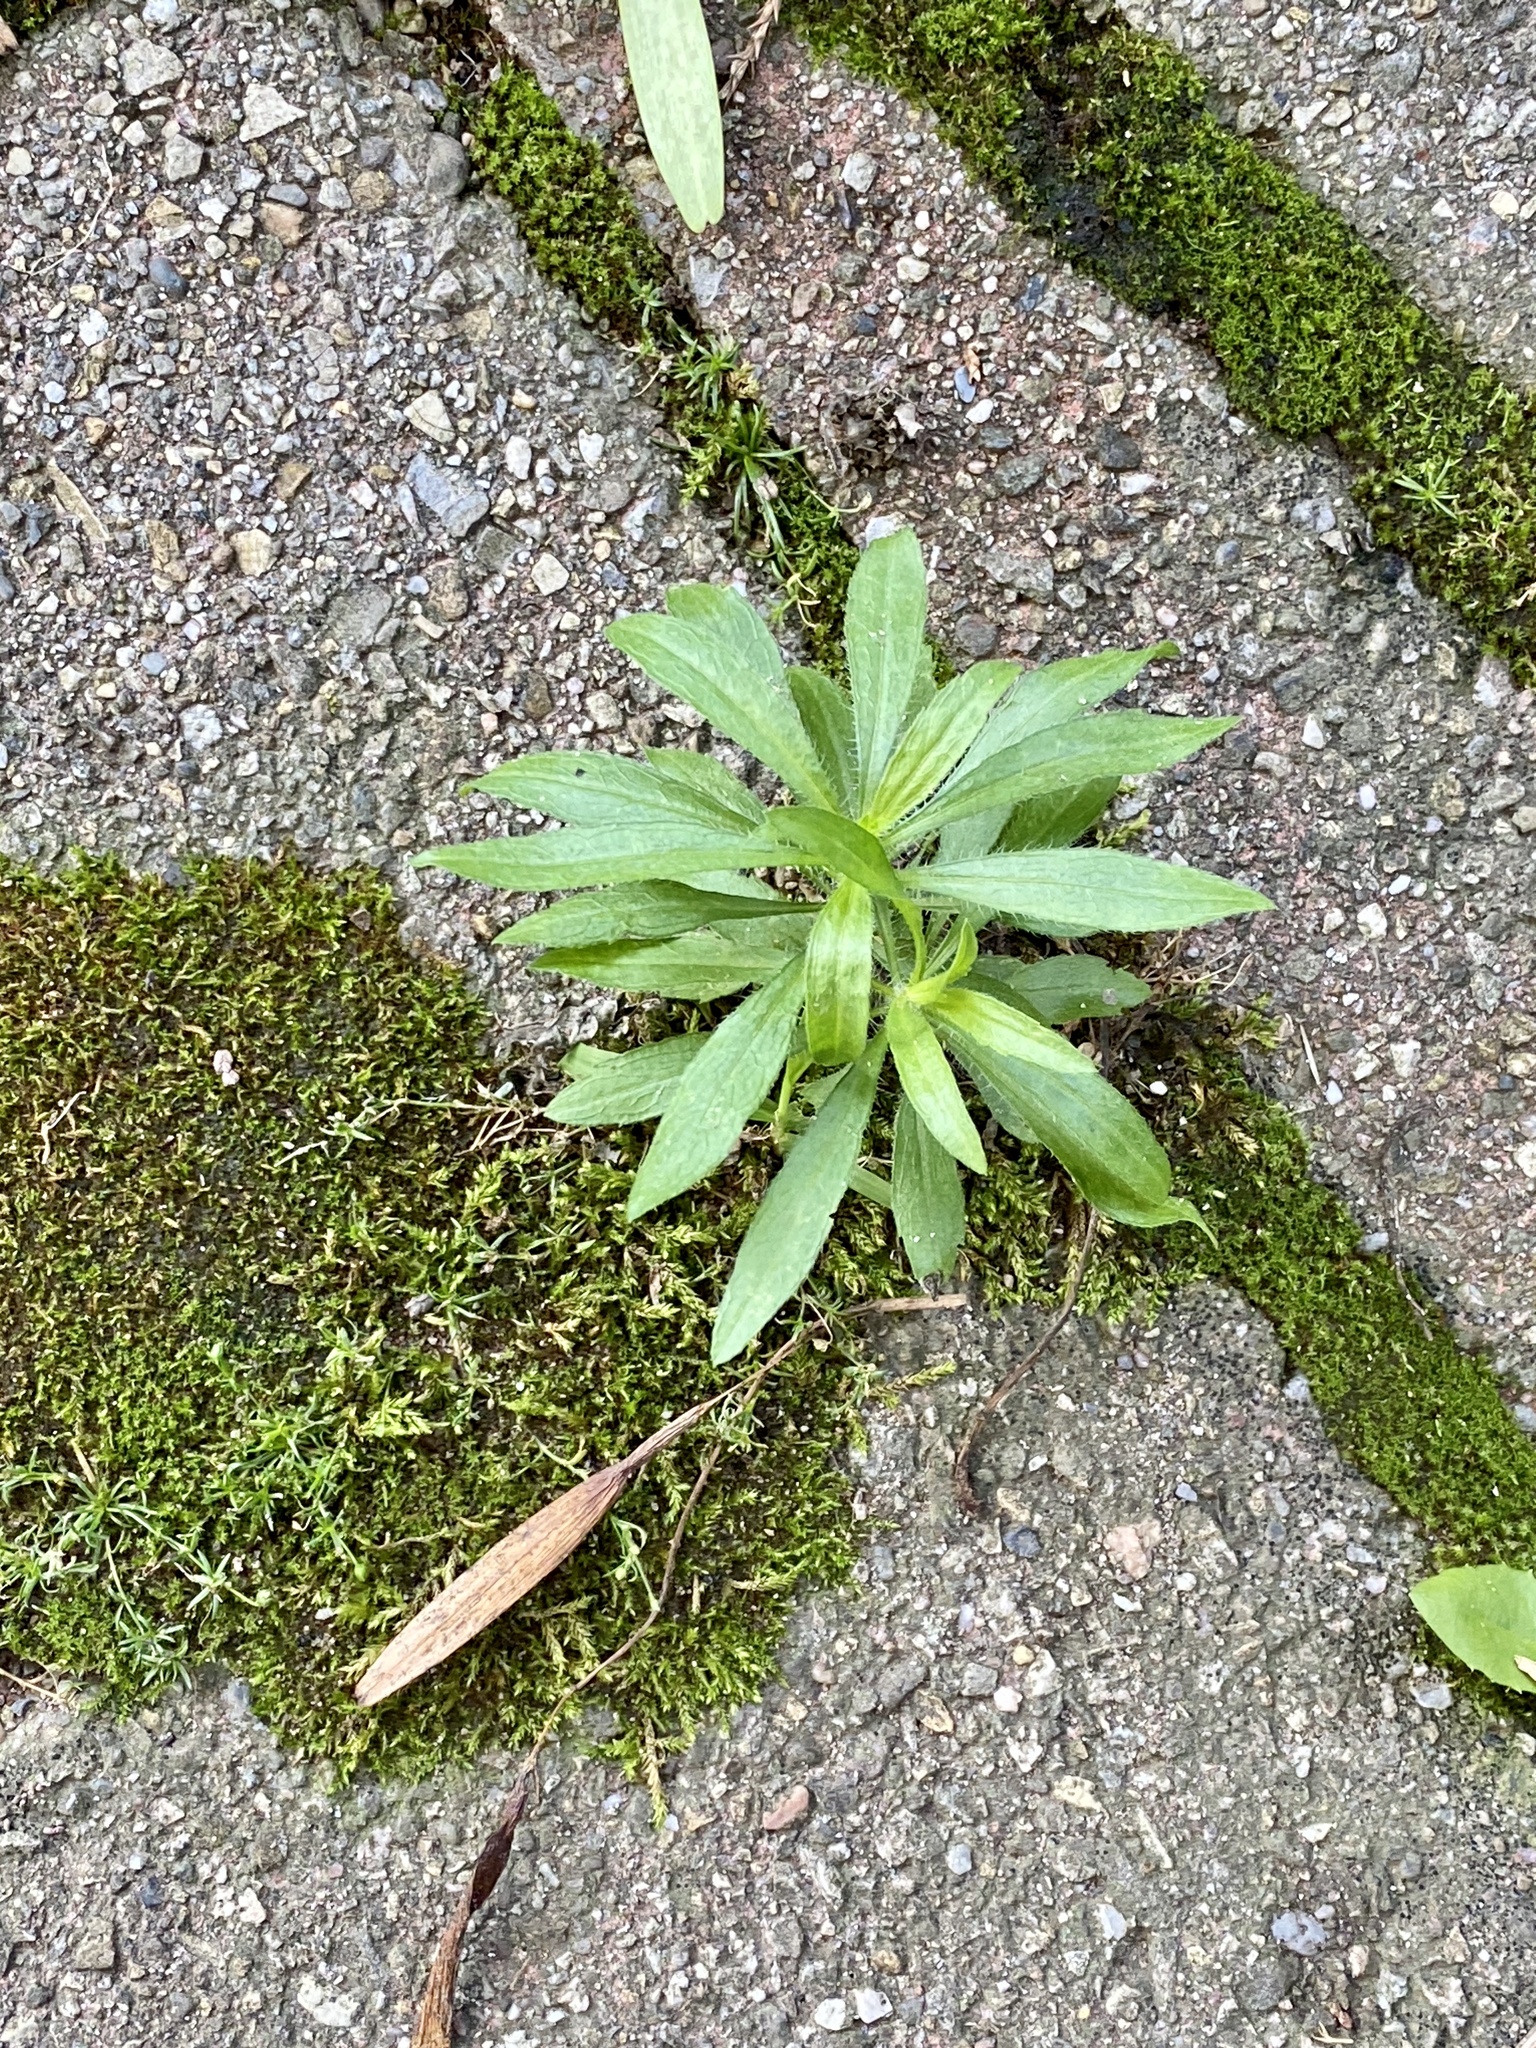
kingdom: Plantae
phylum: Tracheophyta
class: Magnoliopsida
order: Asterales
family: Asteraceae
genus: Erigeron
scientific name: Erigeron canadensis
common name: Canadian fleabane
